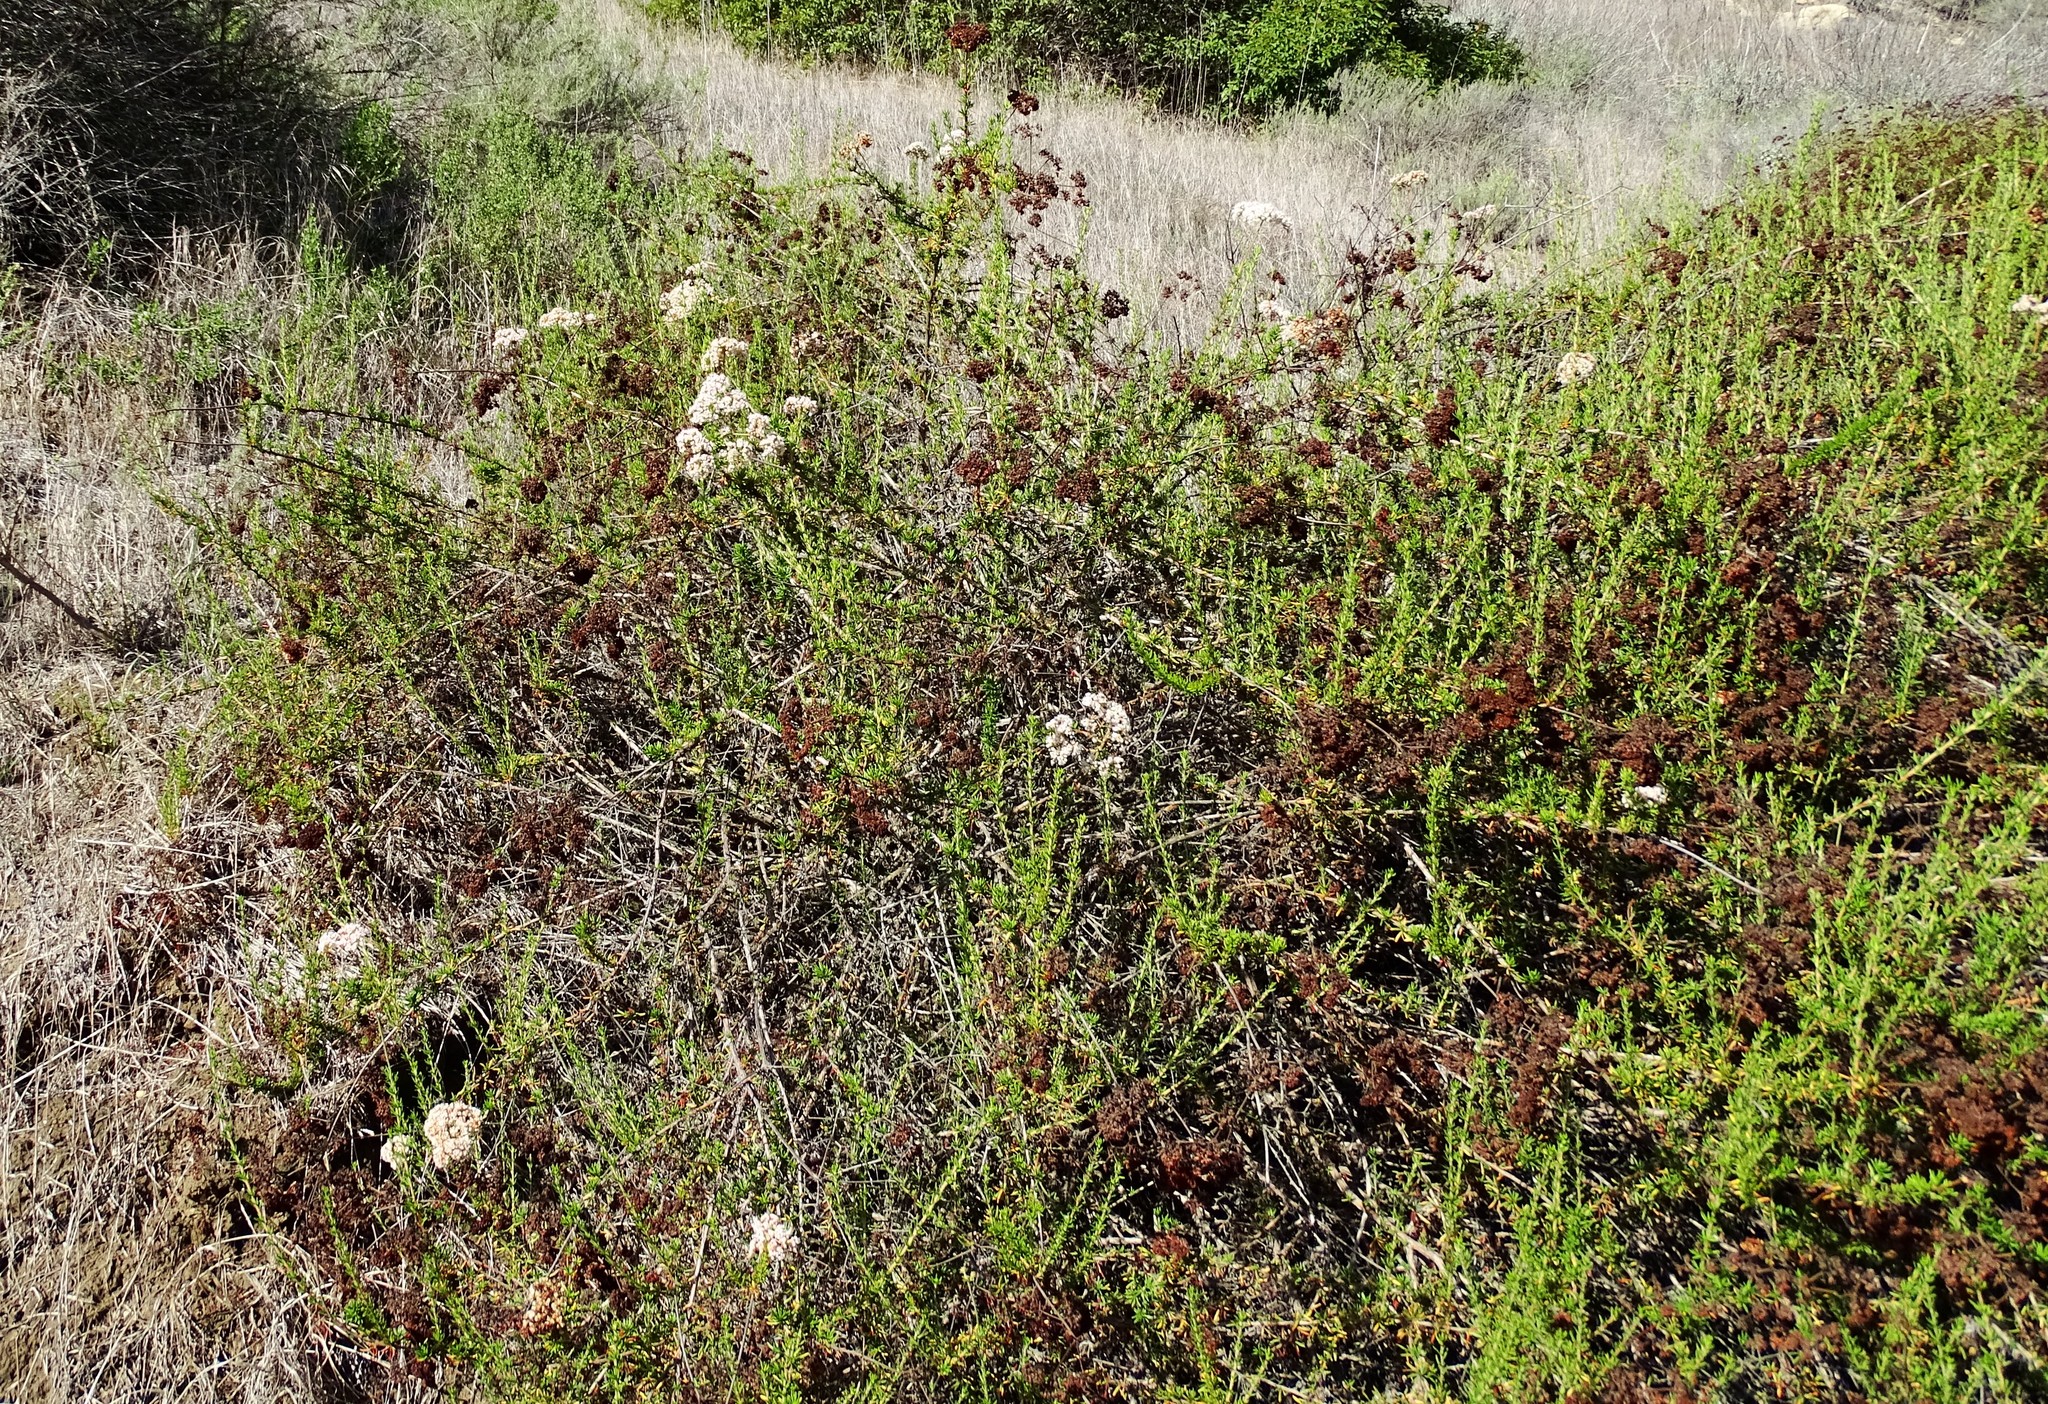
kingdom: Plantae
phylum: Tracheophyta
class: Magnoliopsida
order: Caryophyllales
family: Polygonaceae
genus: Eriogonum
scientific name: Eriogonum fasciculatum
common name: California wild buckwheat
